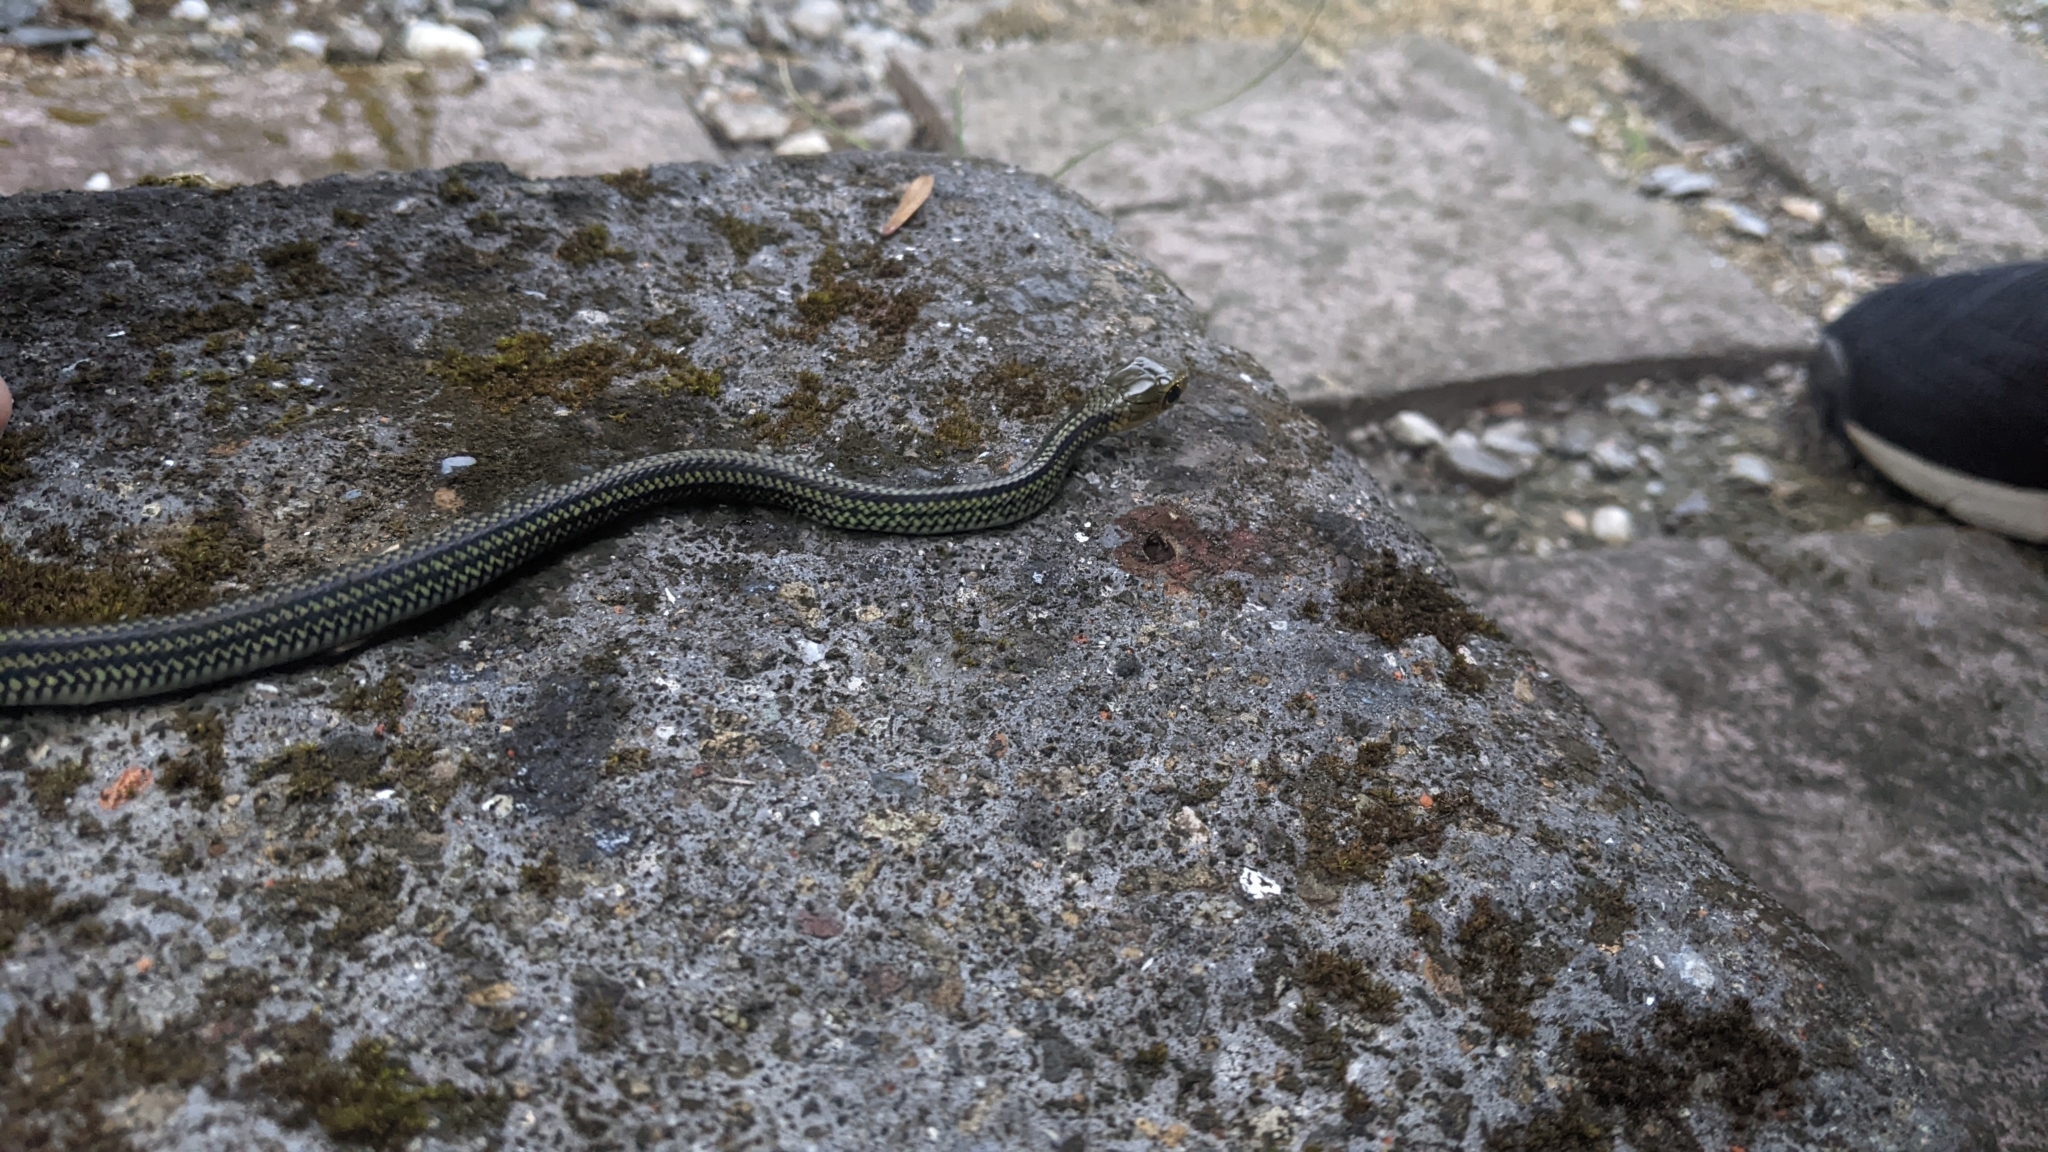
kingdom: Animalia
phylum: Chordata
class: Squamata
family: Colubridae
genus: Ptyas
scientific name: Ptyas dhumnades
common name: Black-striped rat snake
